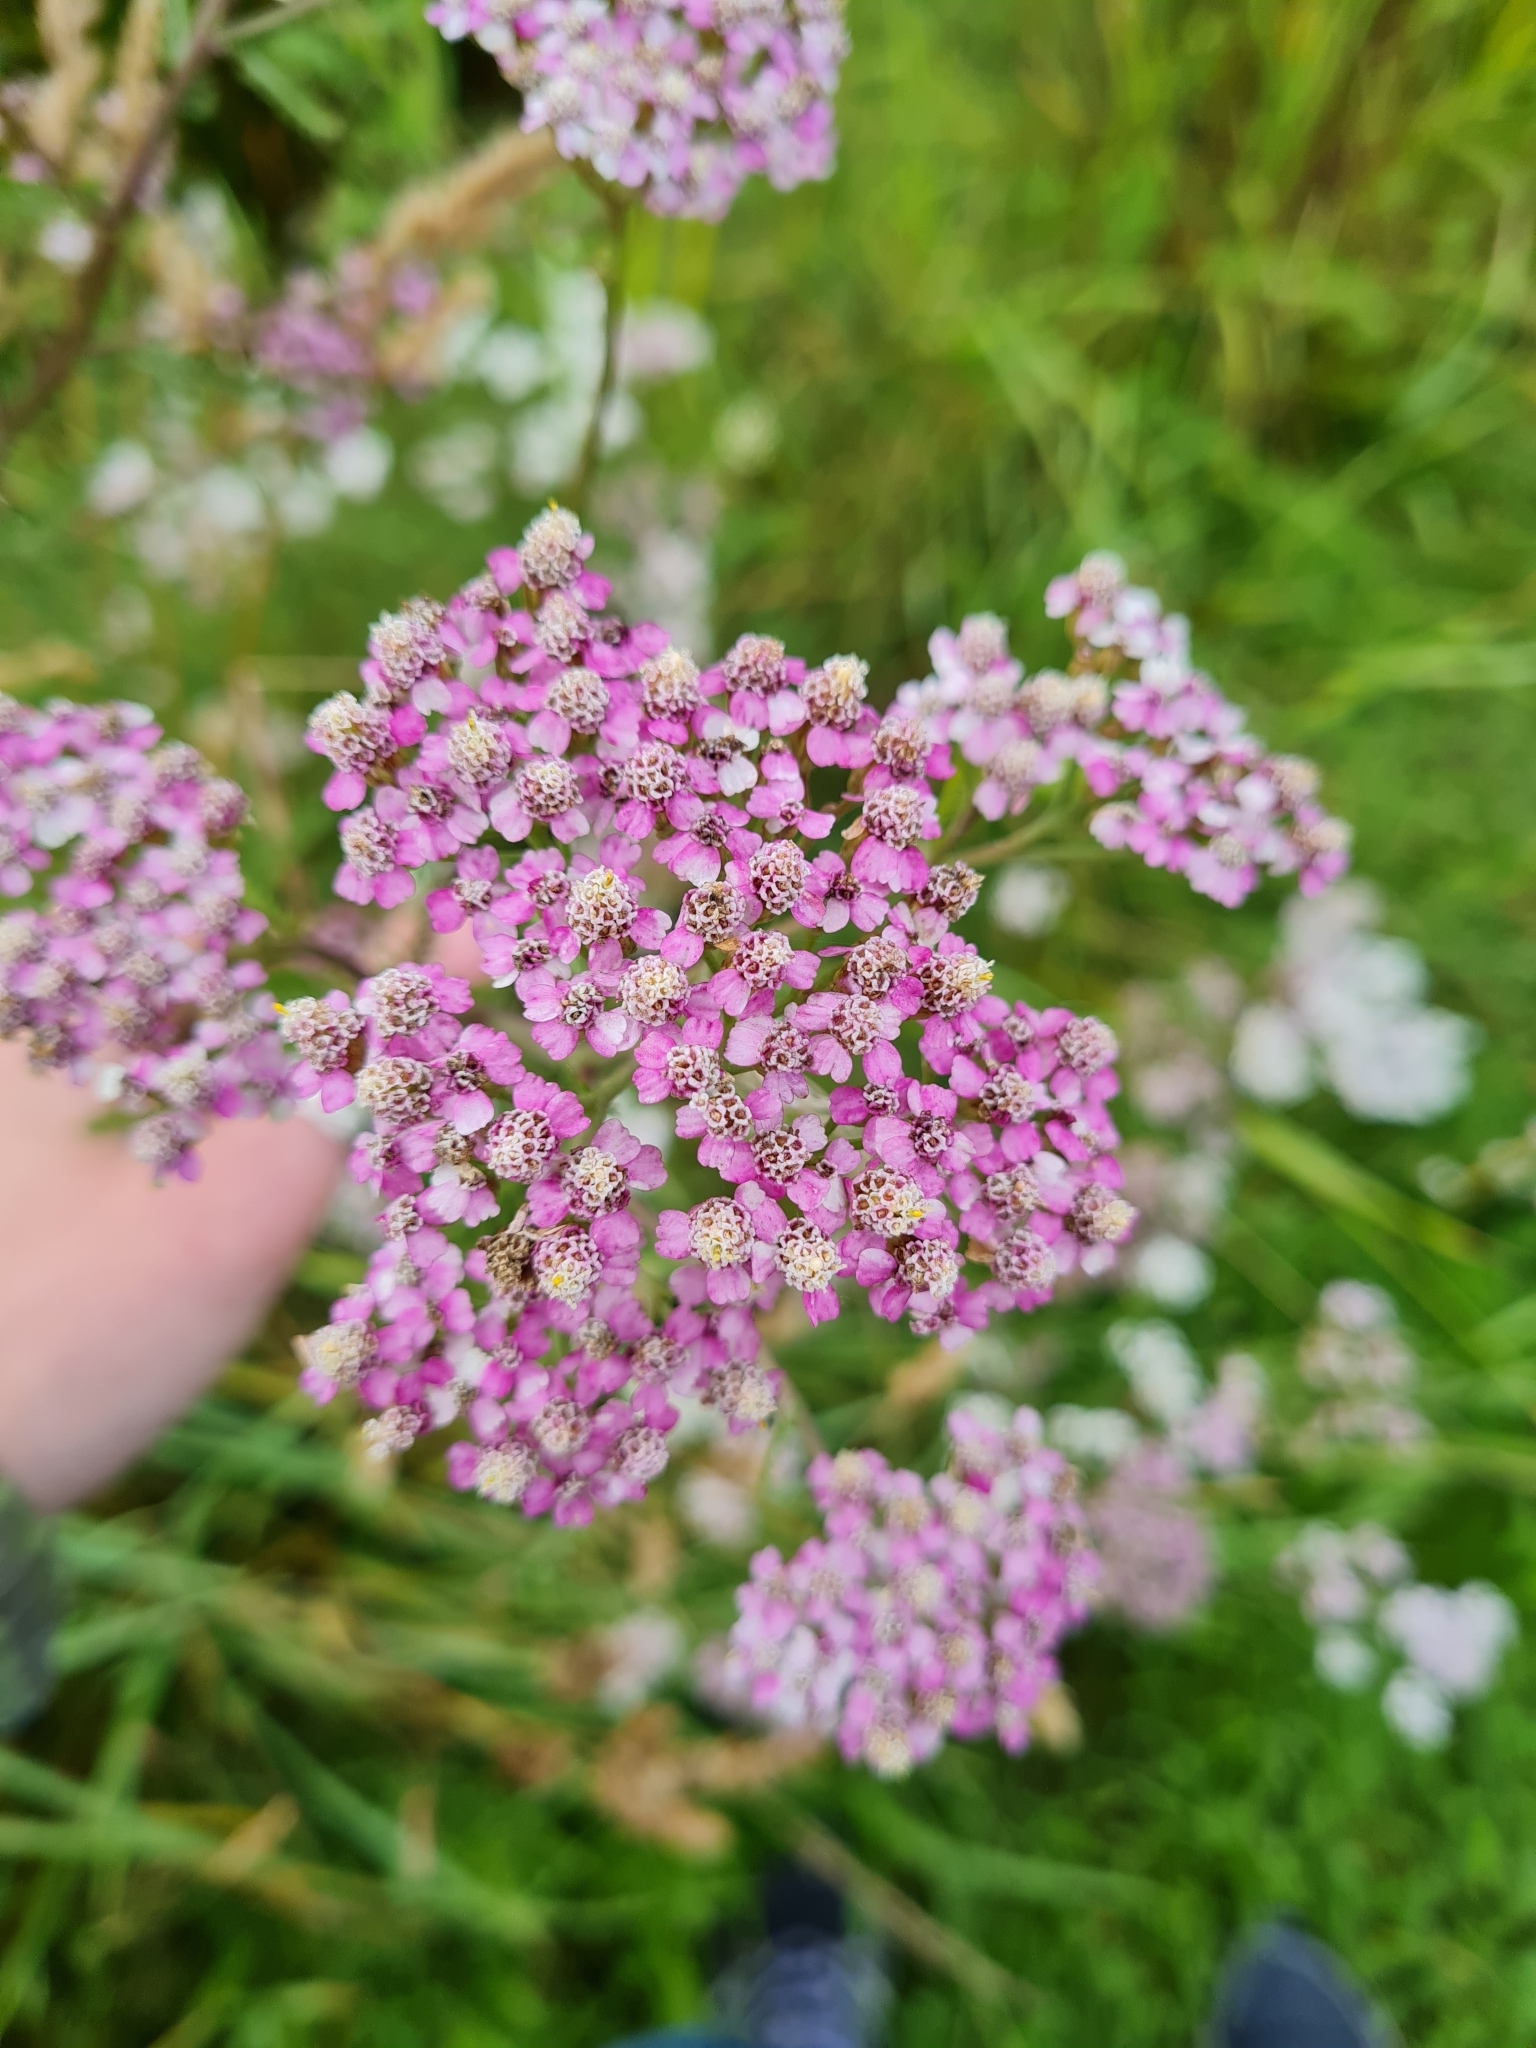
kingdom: Plantae
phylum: Tracheophyta
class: Magnoliopsida
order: Asterales
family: Asteraceae
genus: Achillea
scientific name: Achillea millefolium
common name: Yarrow
